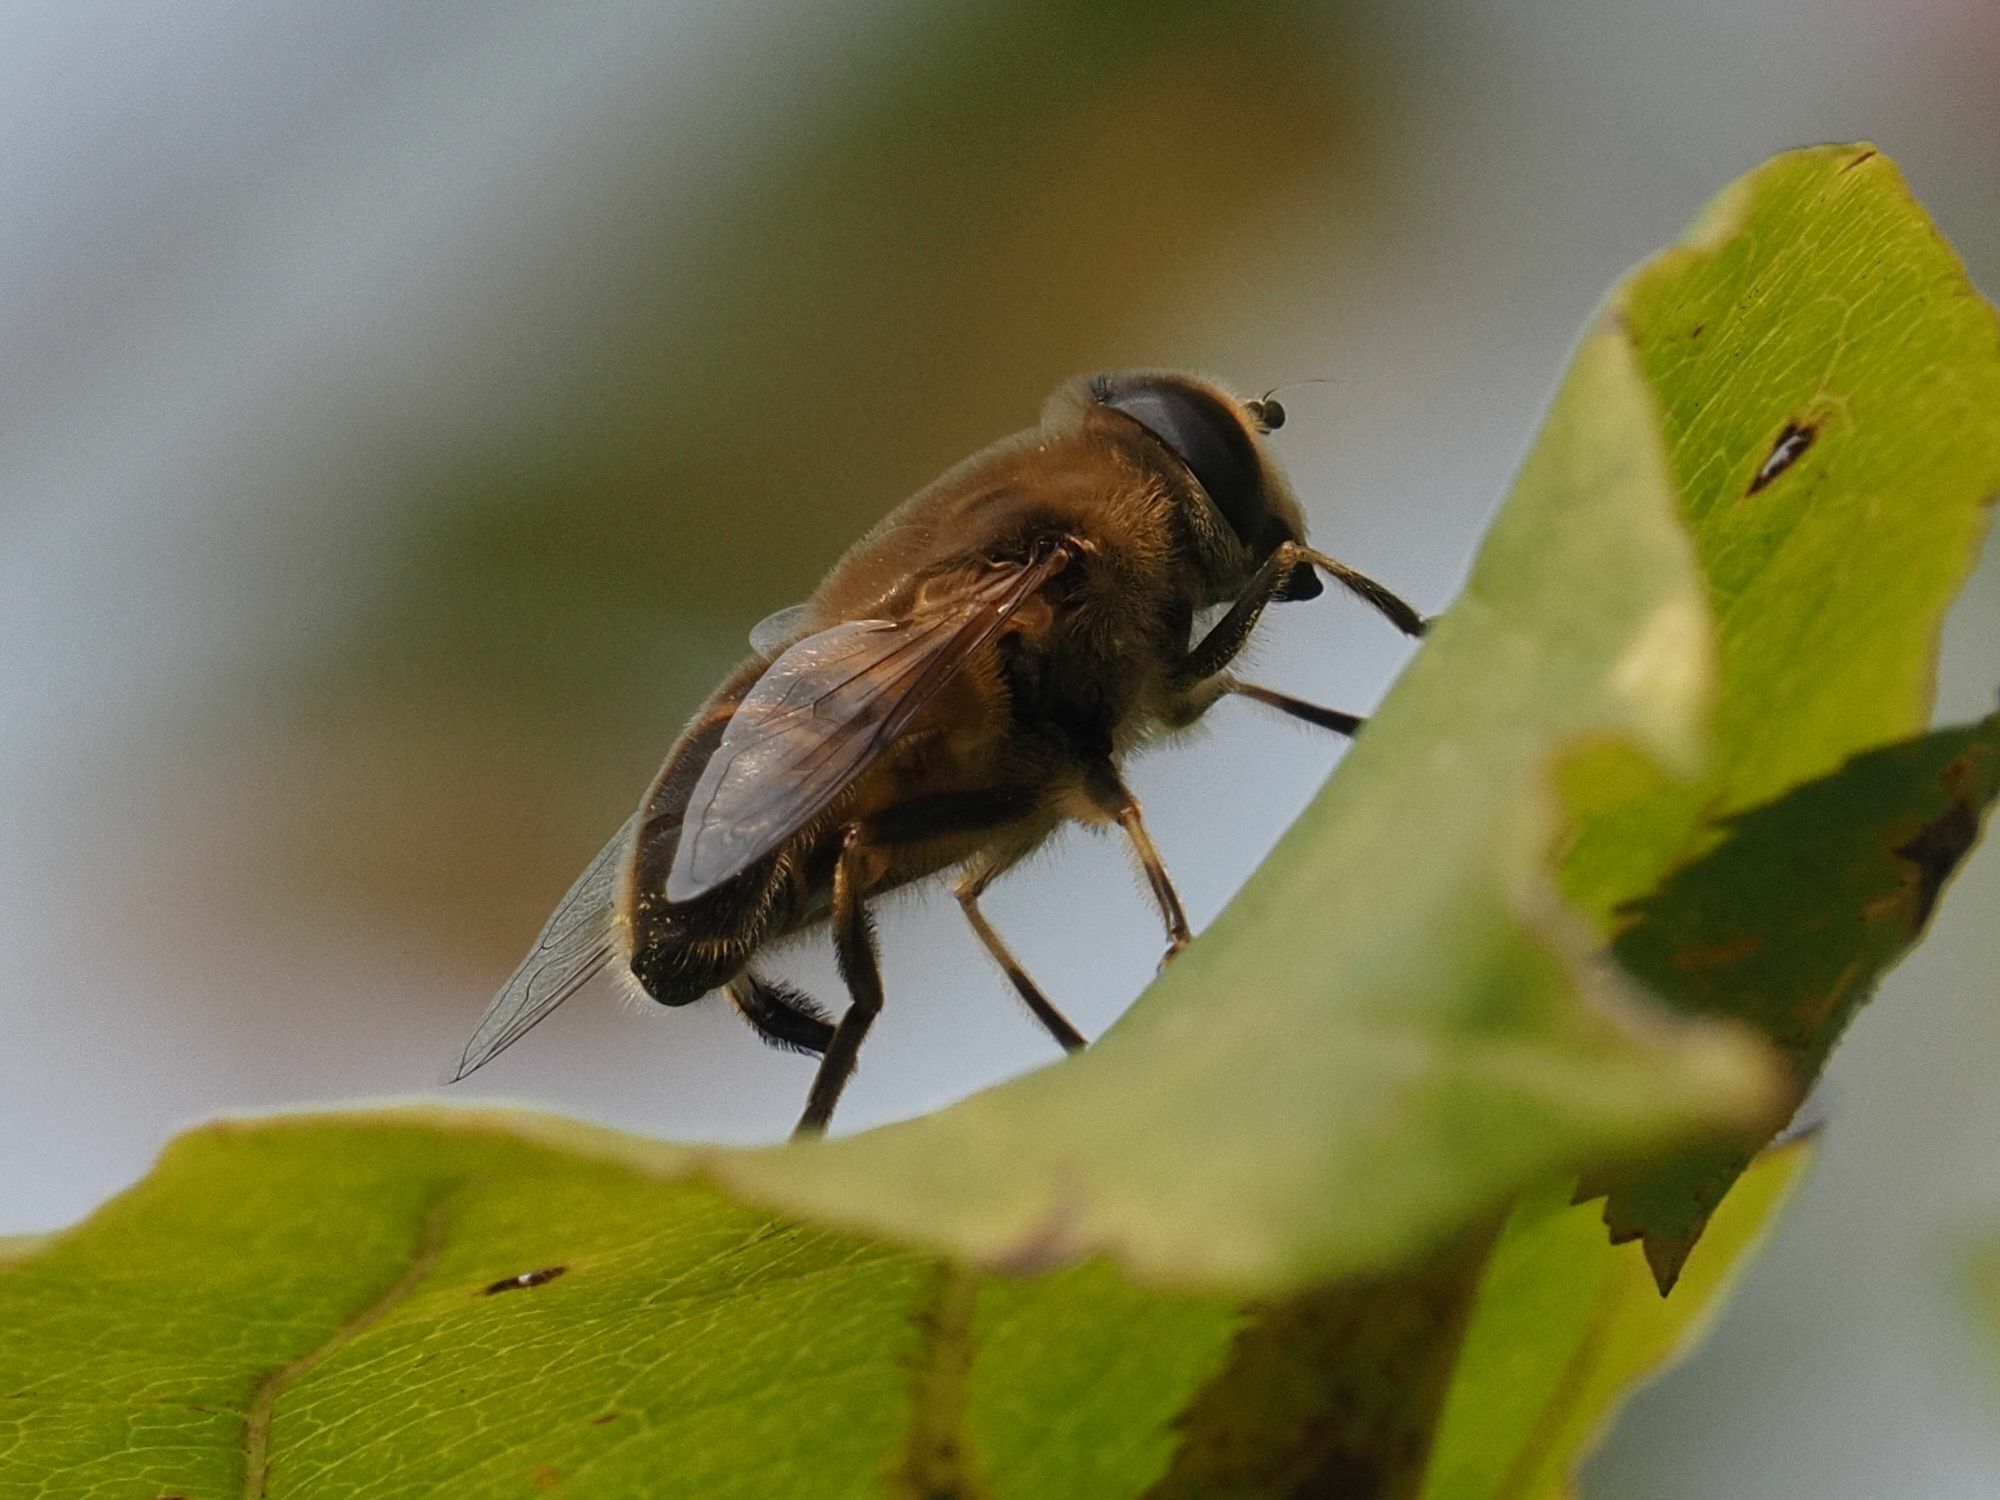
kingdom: Animalia
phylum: Arthropoda
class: Insecta
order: Diptera
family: Syrphidae
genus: Eristalis
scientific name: Eristalis tenax
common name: Drone fly
